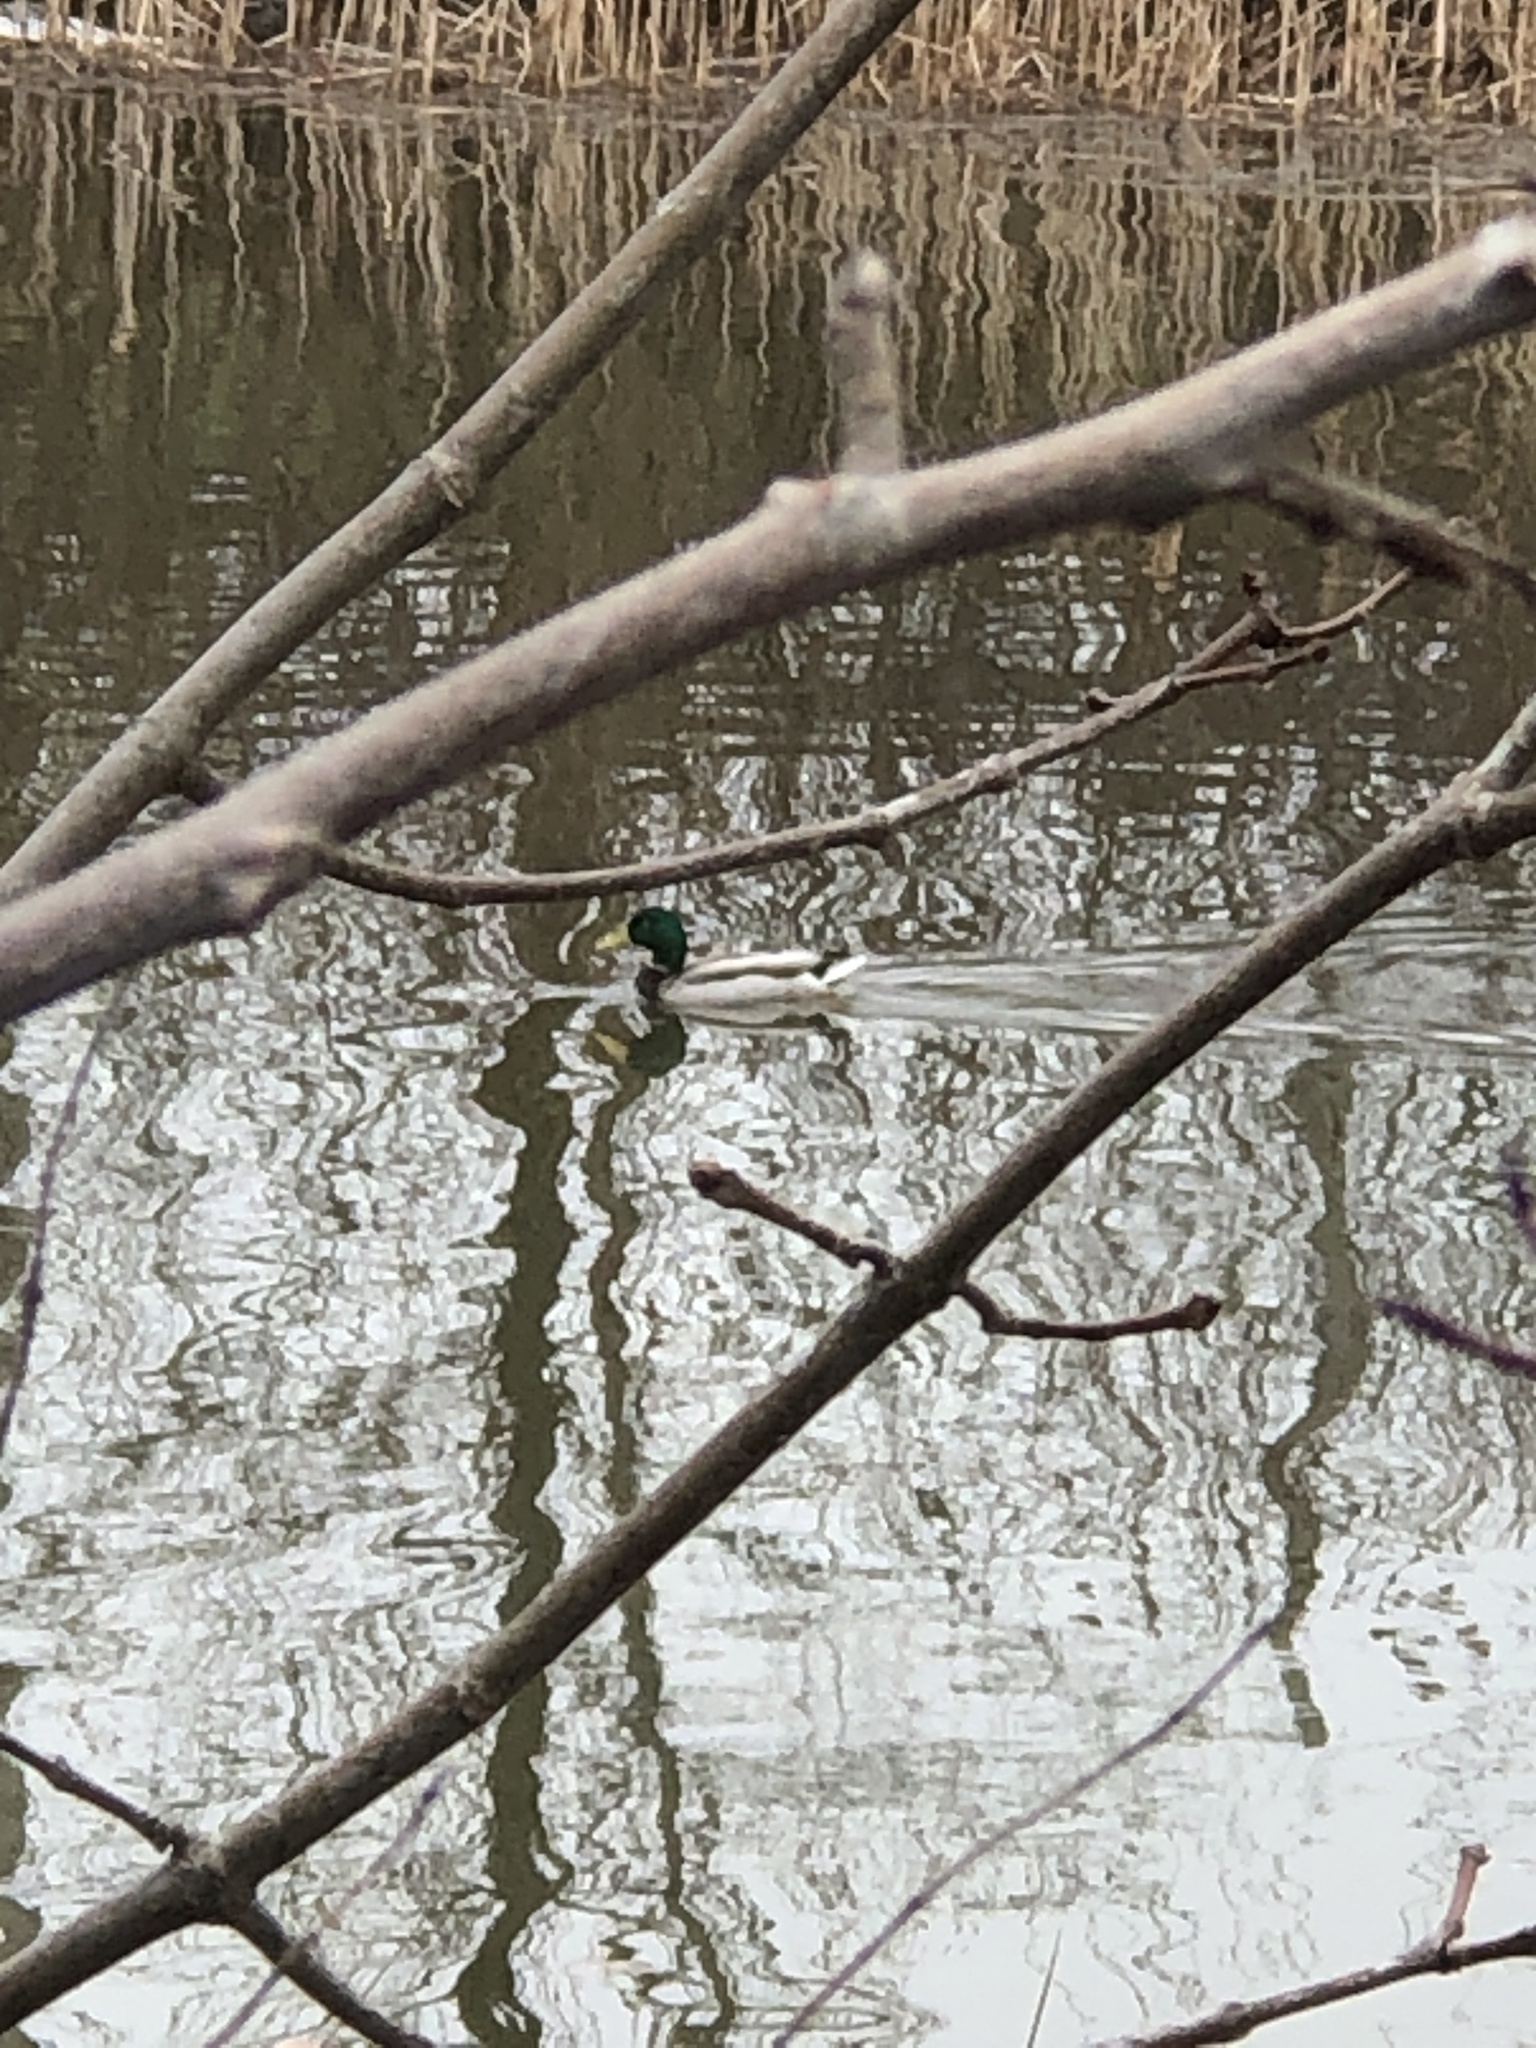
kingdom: Animalia
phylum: Chordata
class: Aves
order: Anseriformes
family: Anatidae
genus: Anas
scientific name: Anas platyrhynchos
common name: Mallard
